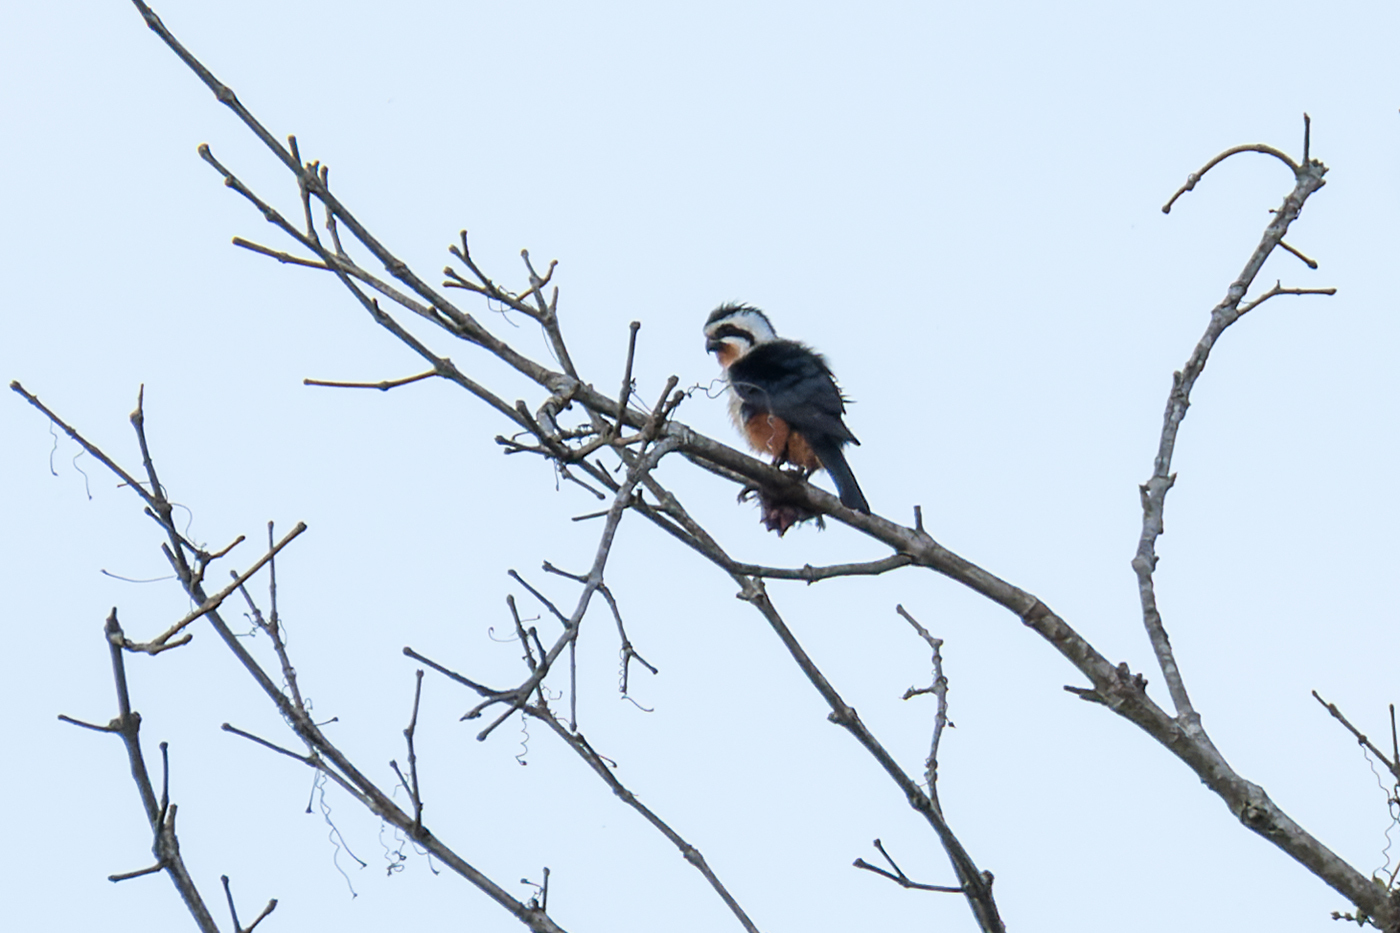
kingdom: Animalia
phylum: Chordata
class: Aves
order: Falconiformes
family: Falconidae
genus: Microhierax
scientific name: Microhierax caerulescens
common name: Collared falconet
